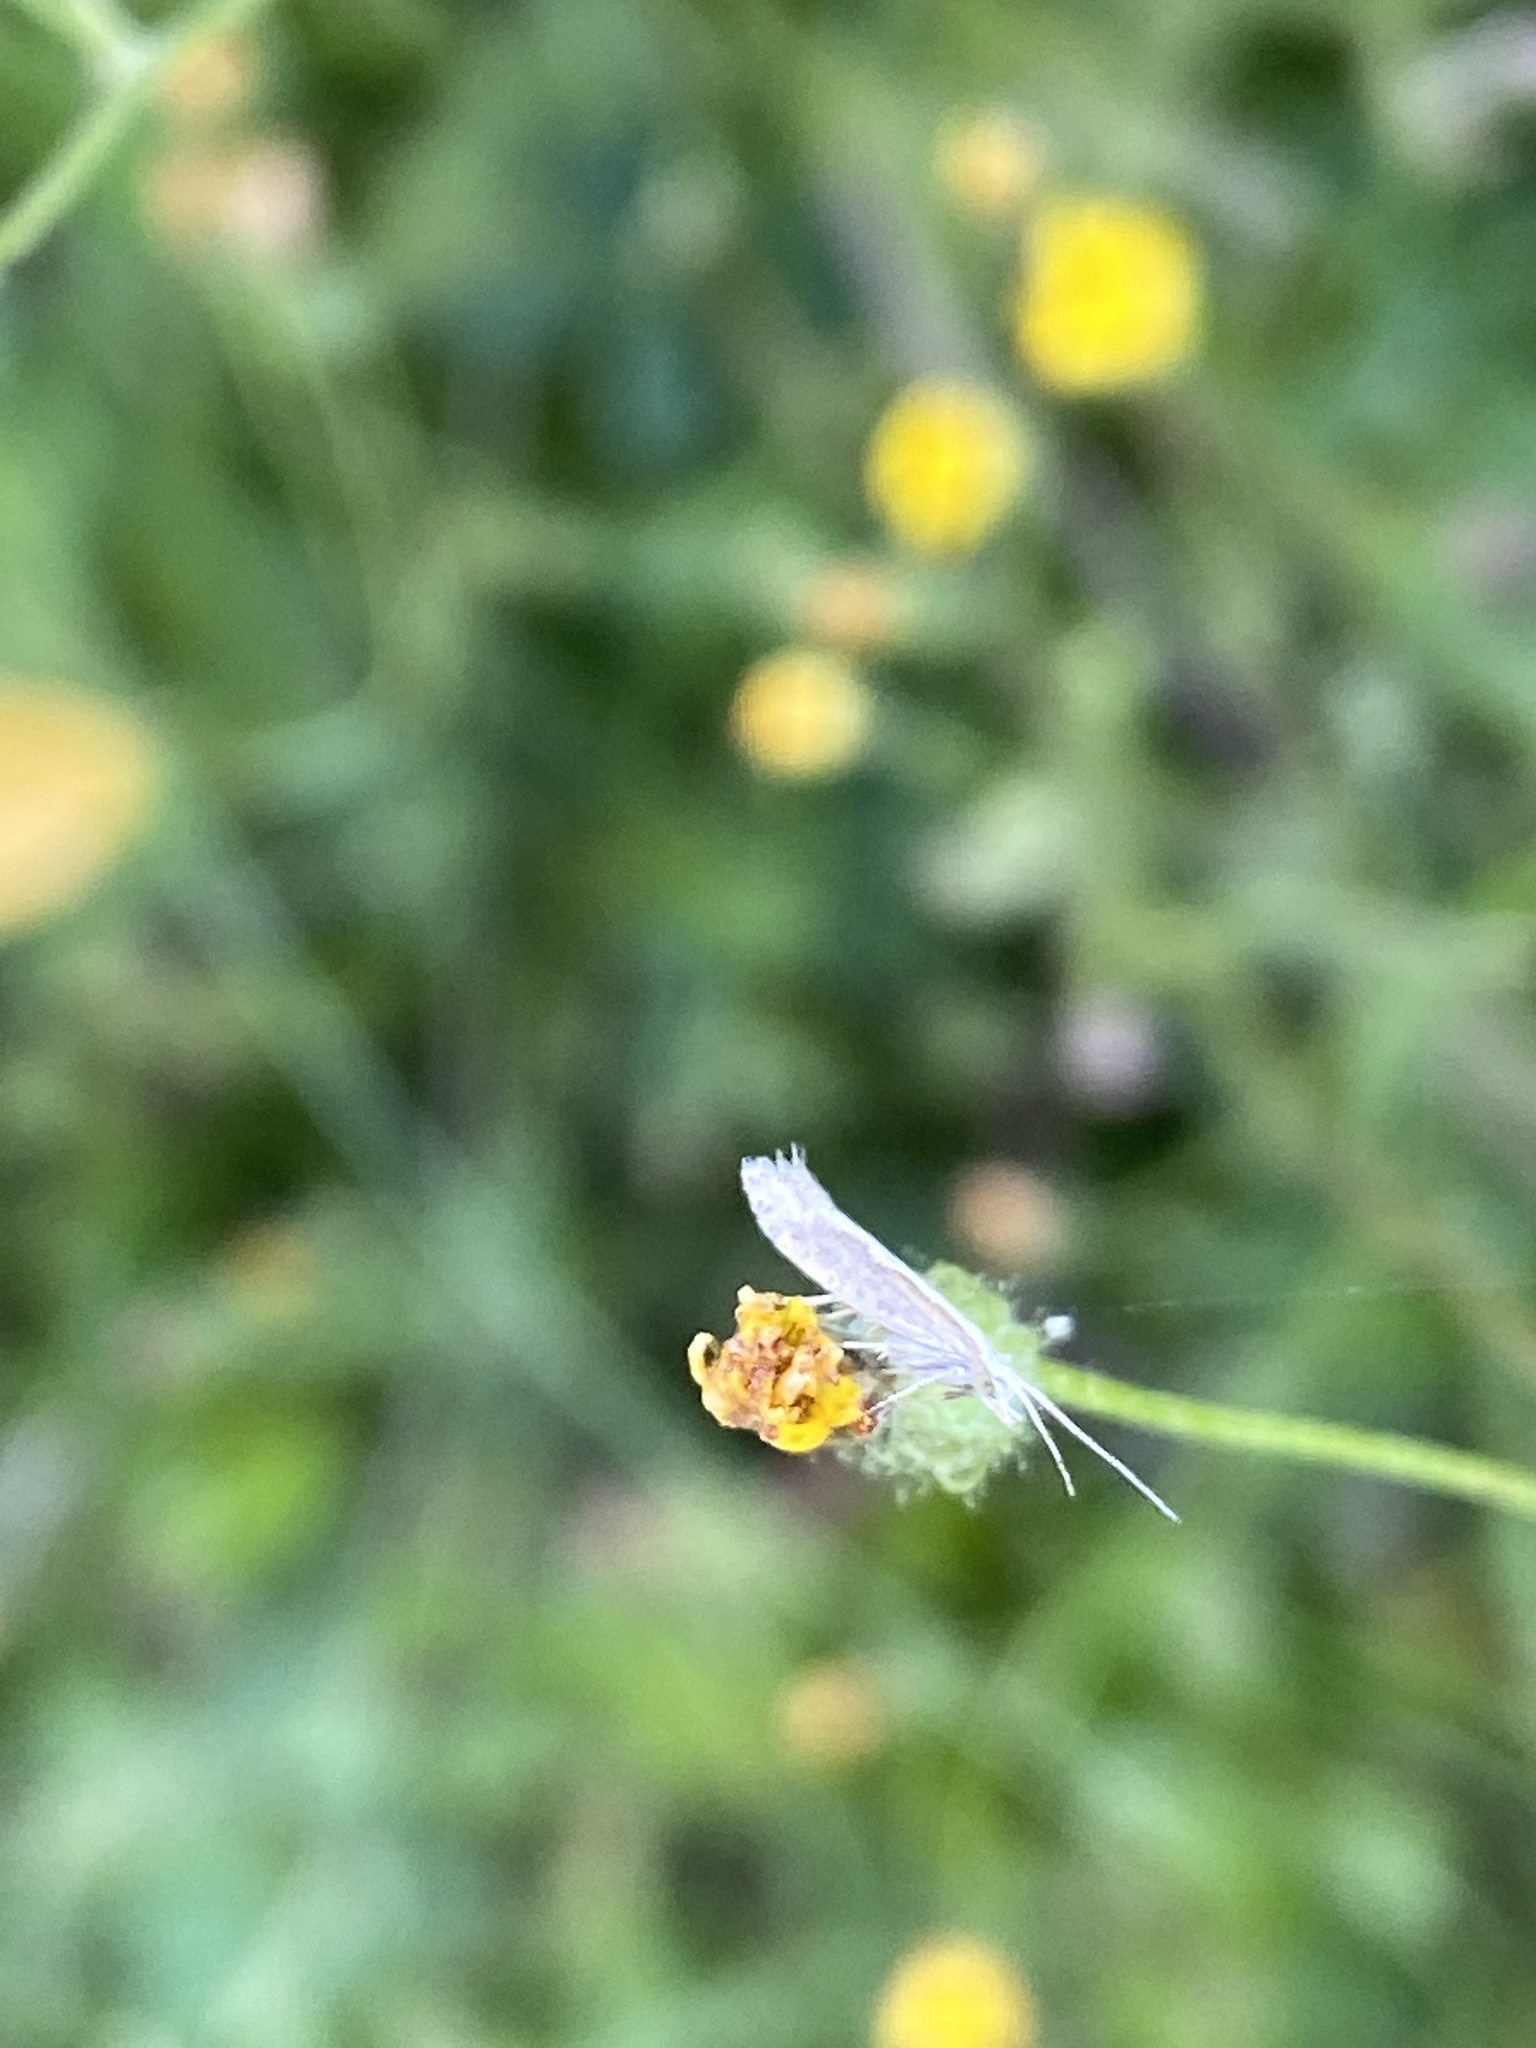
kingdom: Animalia
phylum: Arthropoda
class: Insecta
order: Lepidoptera
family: Plutellidae
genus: Plutella
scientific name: Plutella xylostella
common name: Diamond-back moth
